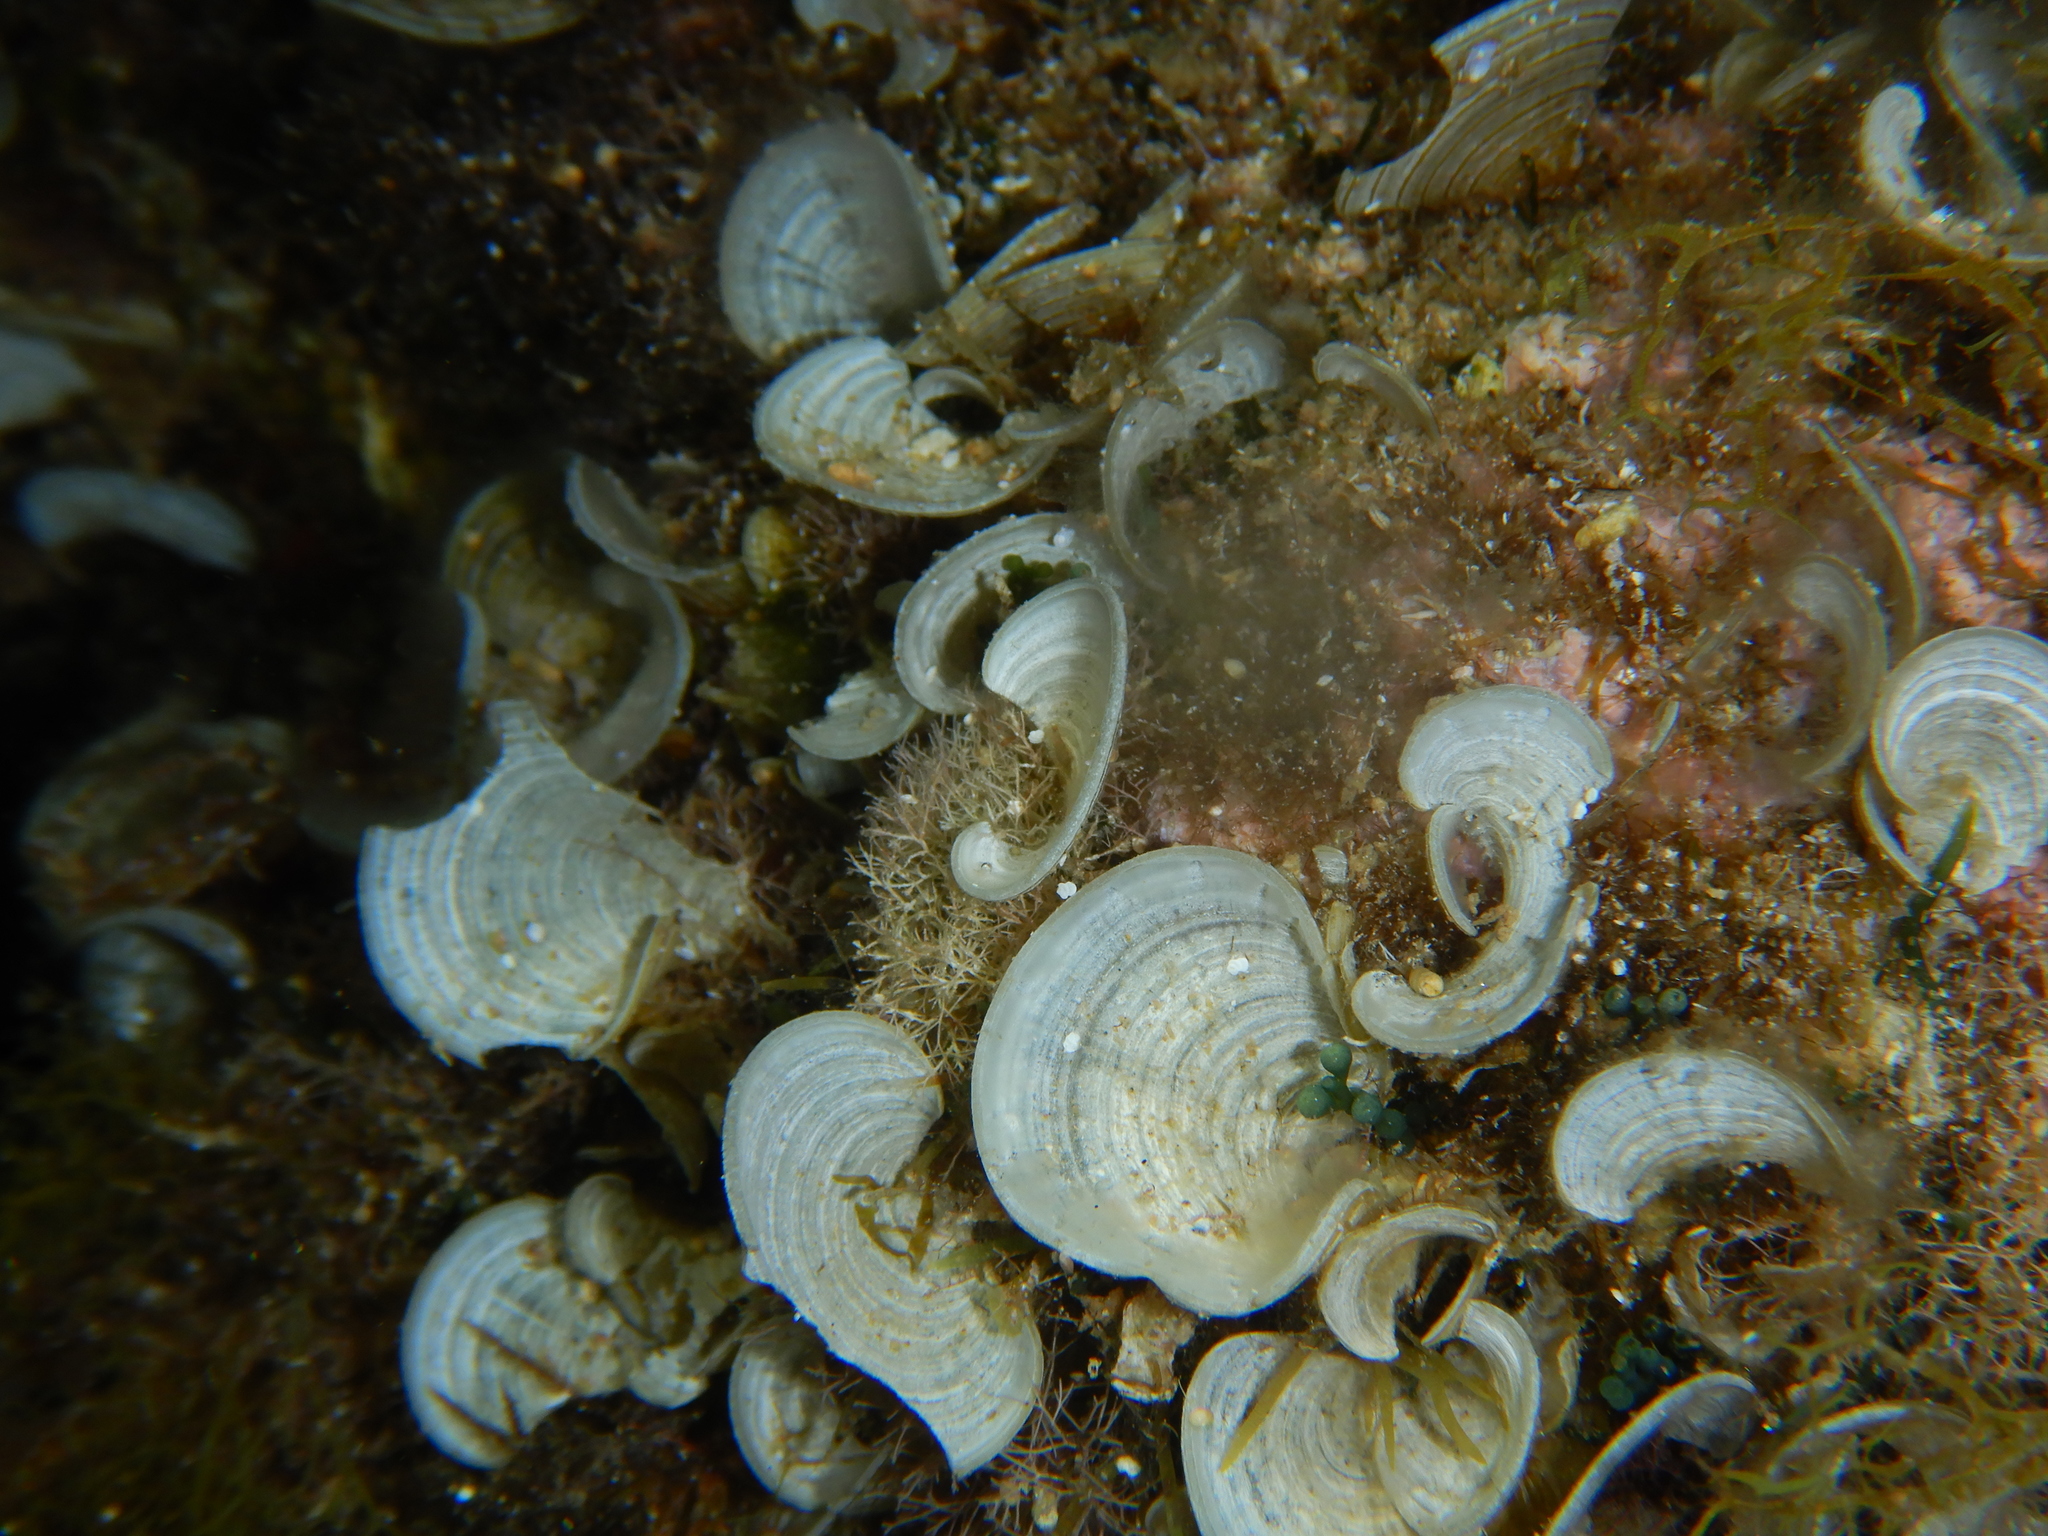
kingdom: Chromista
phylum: Ochrophyta
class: Phaeophyceae
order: Dictyotales
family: Dictyotaceae
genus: Padina
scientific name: Padina pavonica
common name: Turkey feather alga
